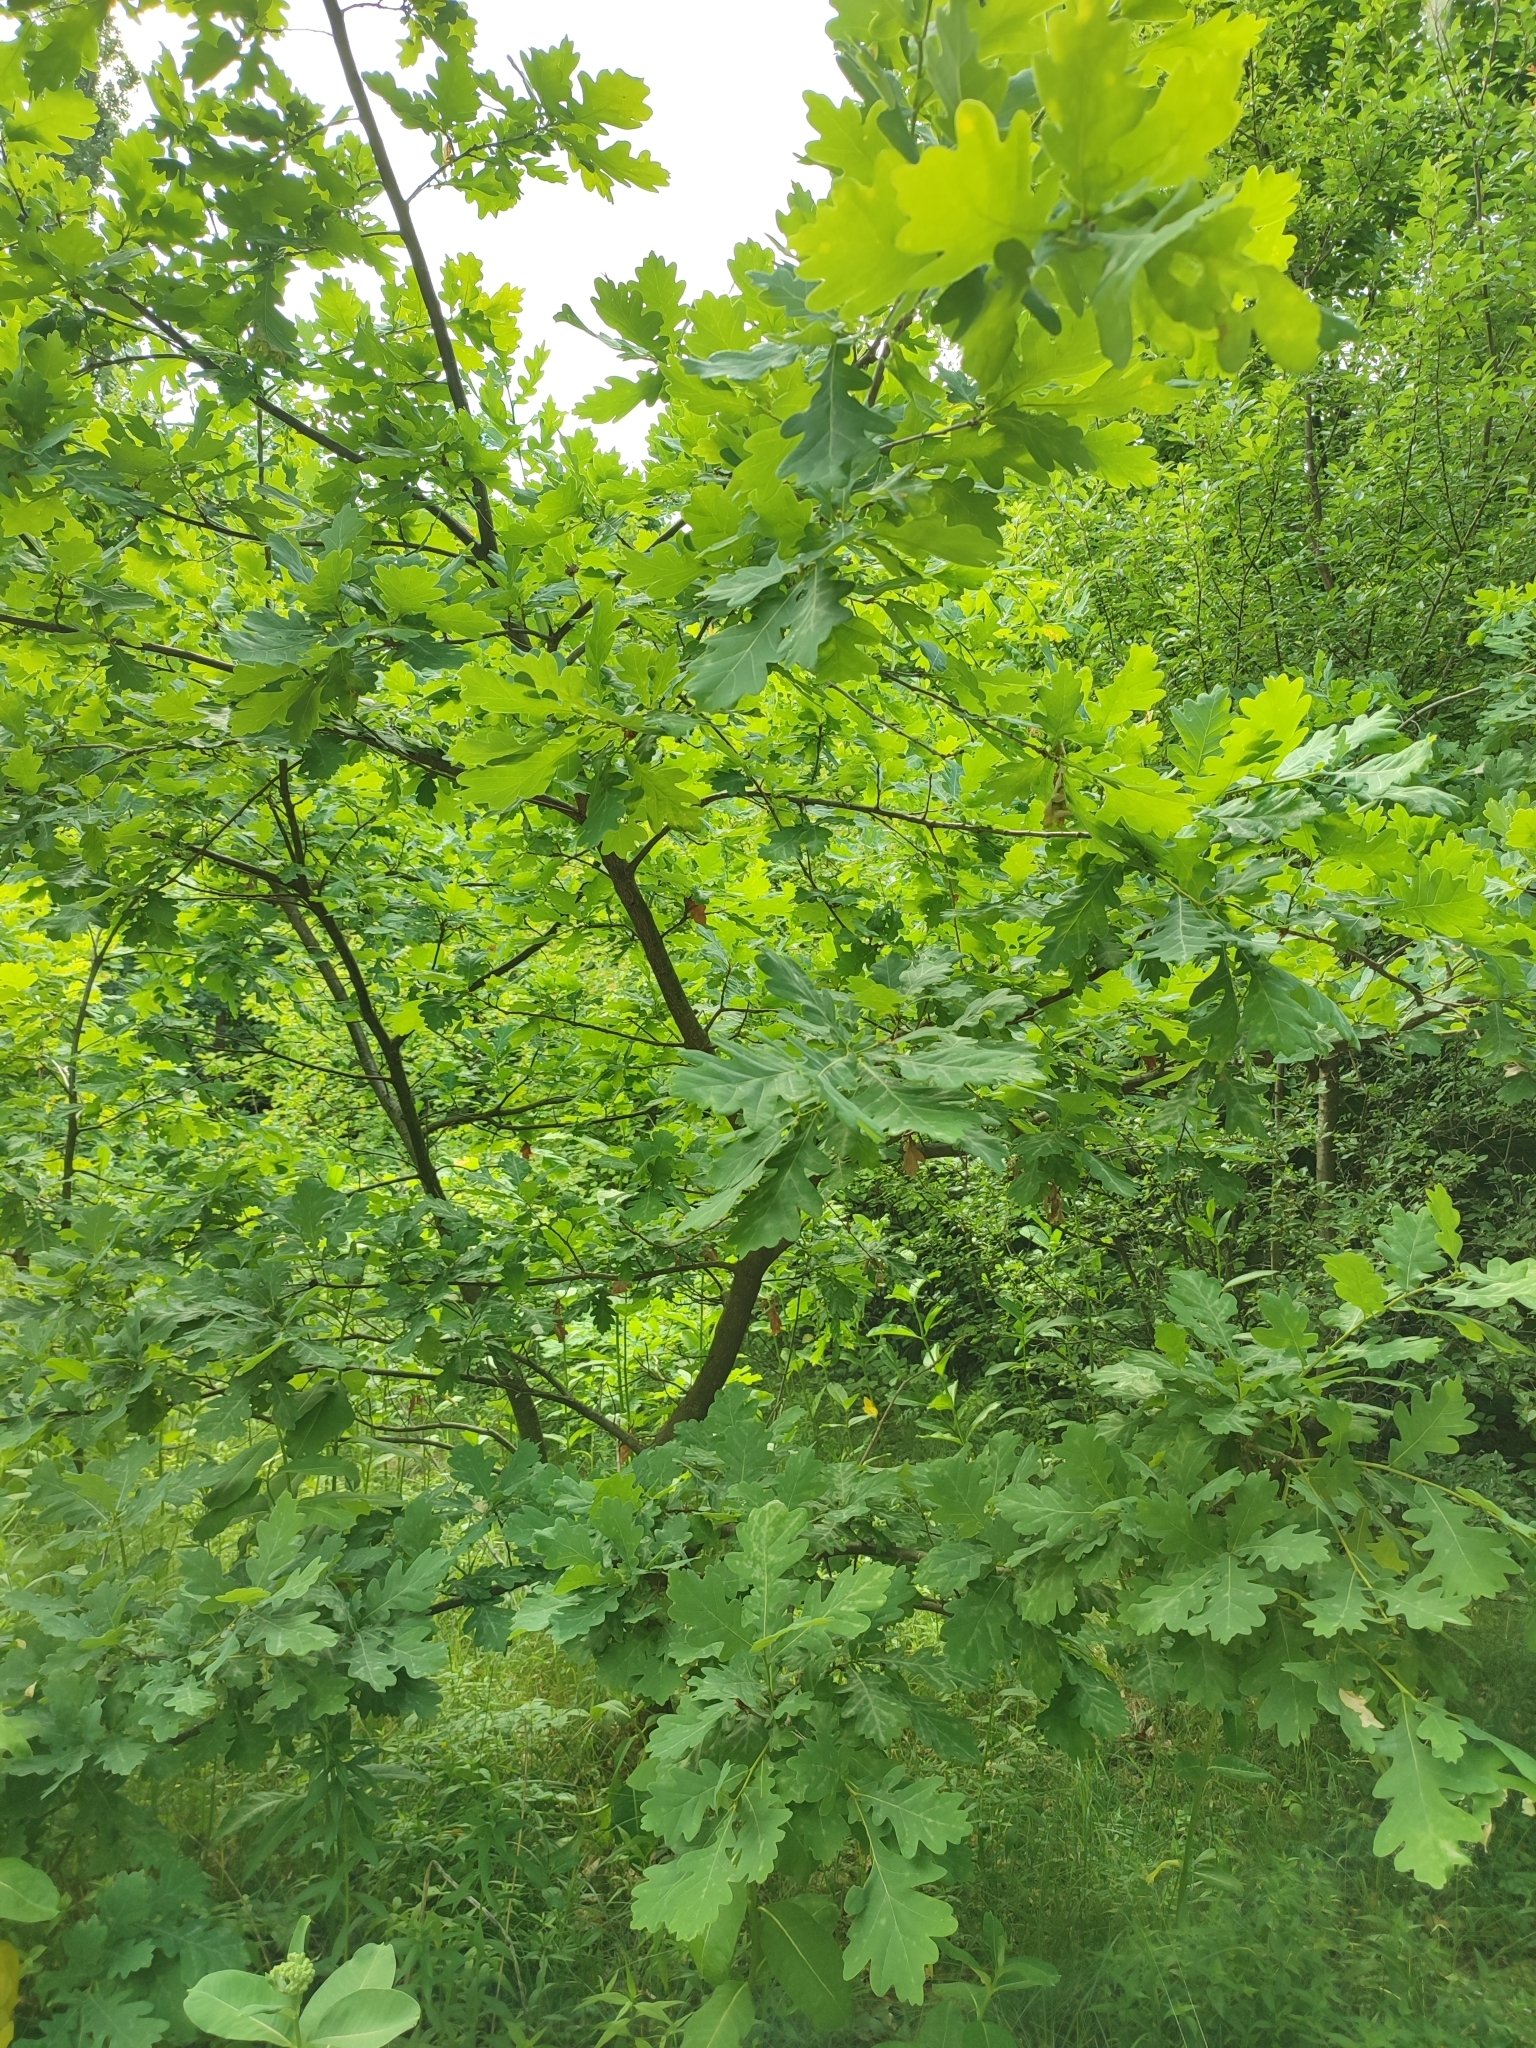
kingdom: Plantae
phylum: Tracheophyta
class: Magnoliopsida
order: Fagales
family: Fagaceae
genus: Quercus
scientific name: Quercus robur
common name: Pedunculate oak
